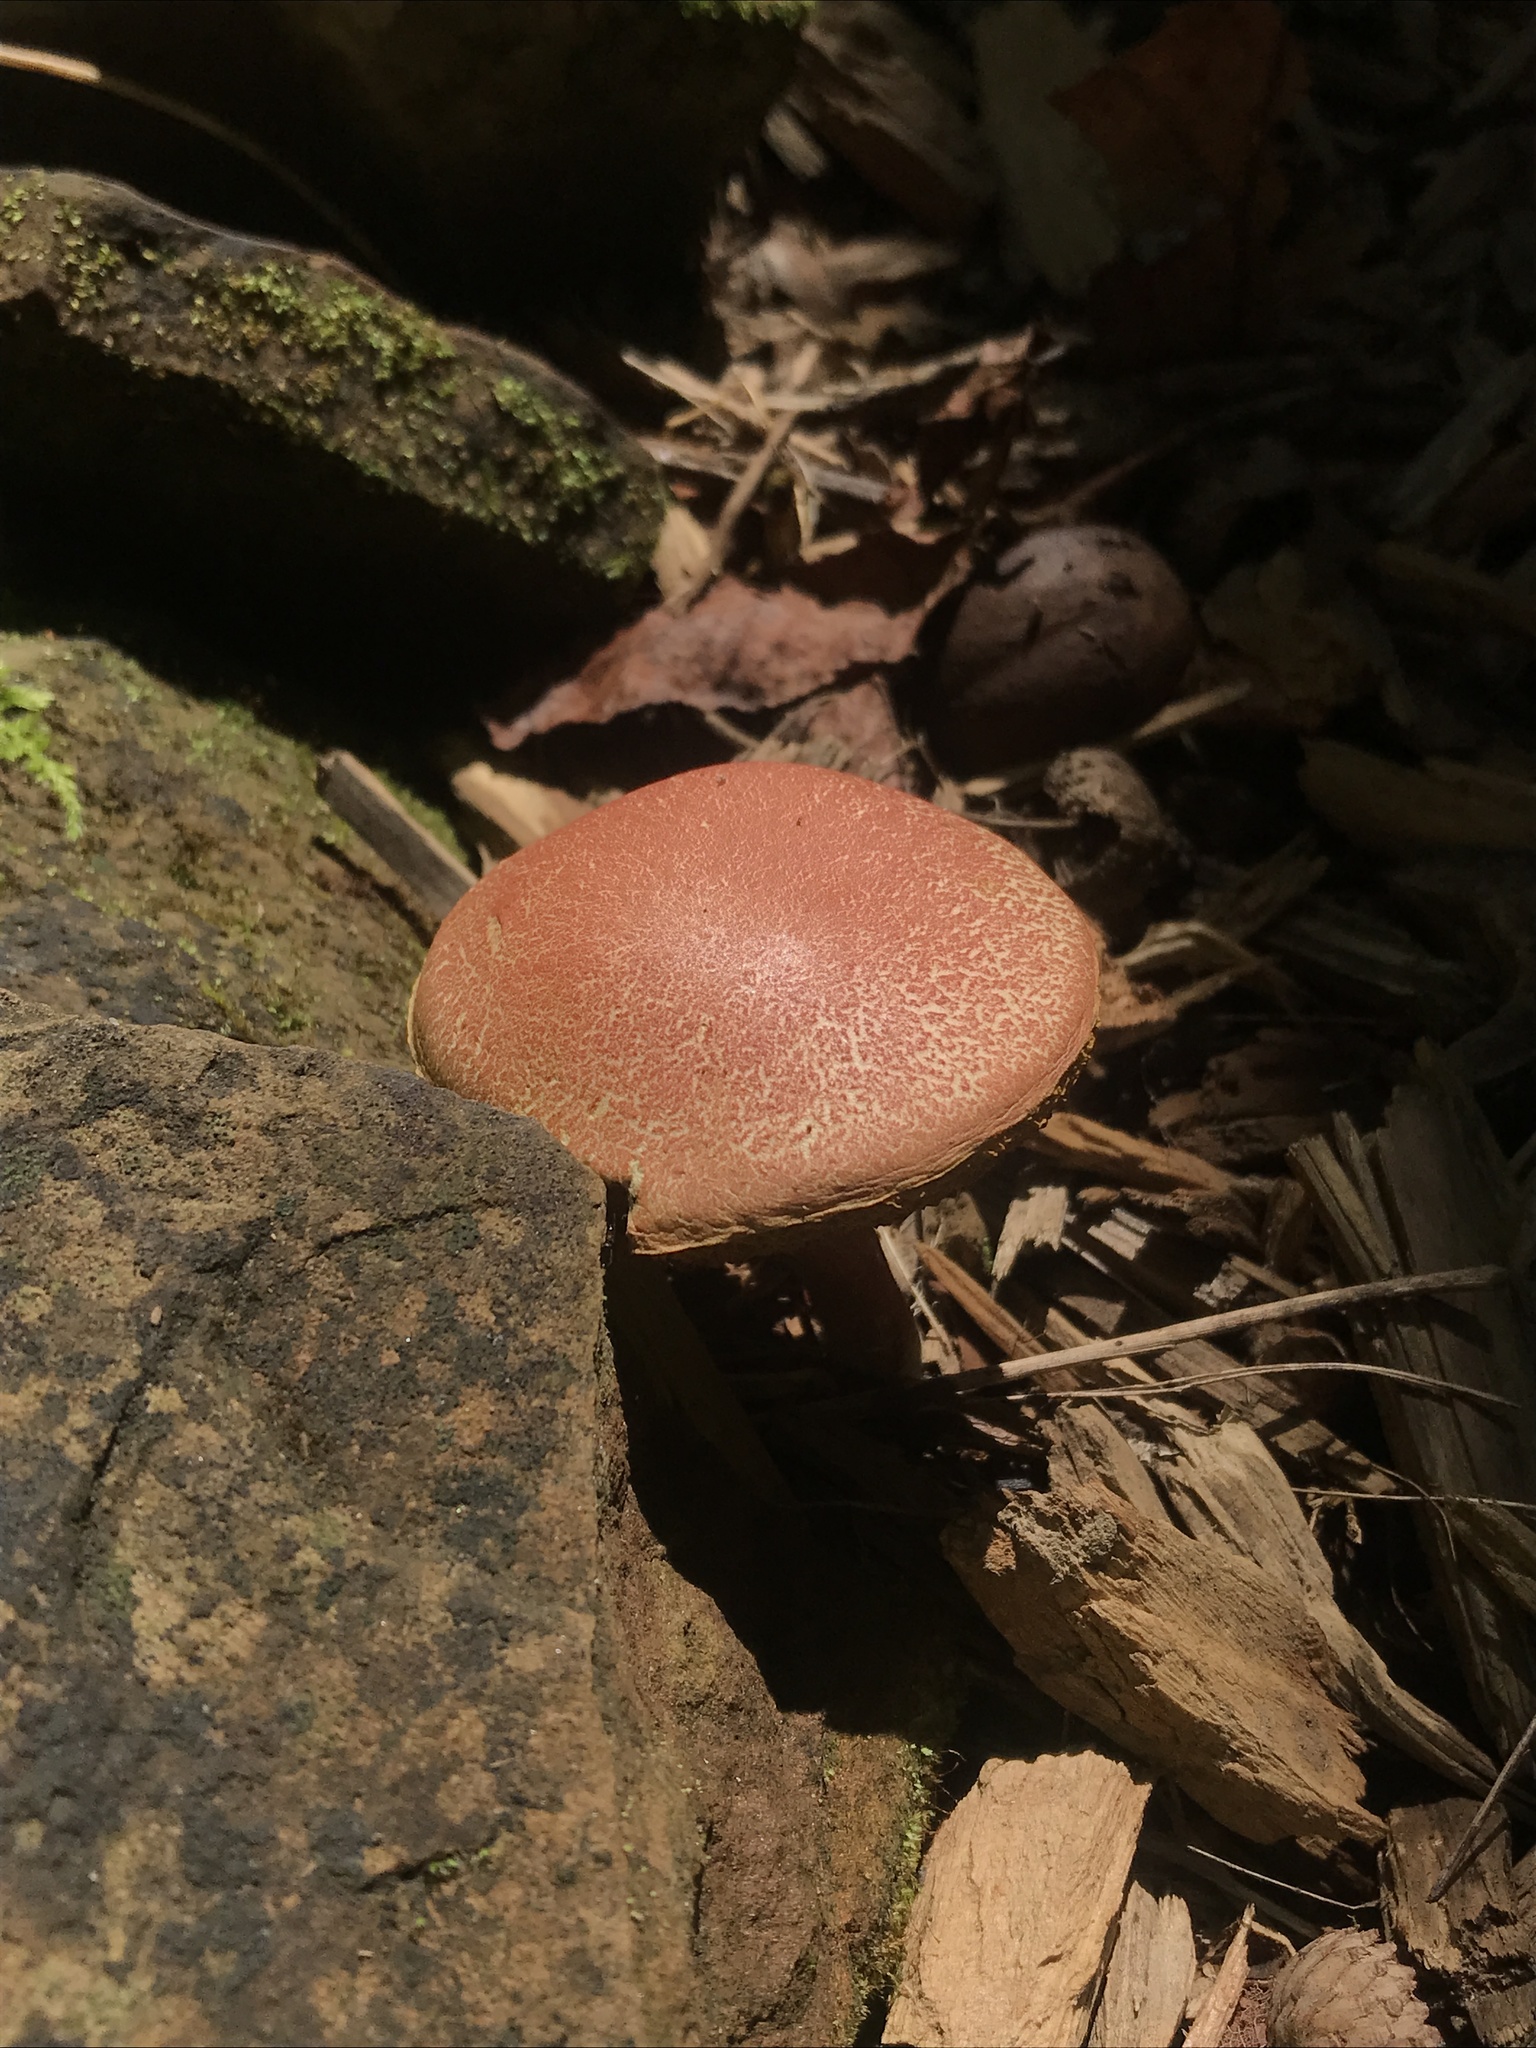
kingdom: Fungi
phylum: Basidiomycota
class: Agaricomycetes
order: Boletales
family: Boletaceae
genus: Xerocomellus
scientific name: Xerocomellus chrysenteron
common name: Red-cracking bolete
